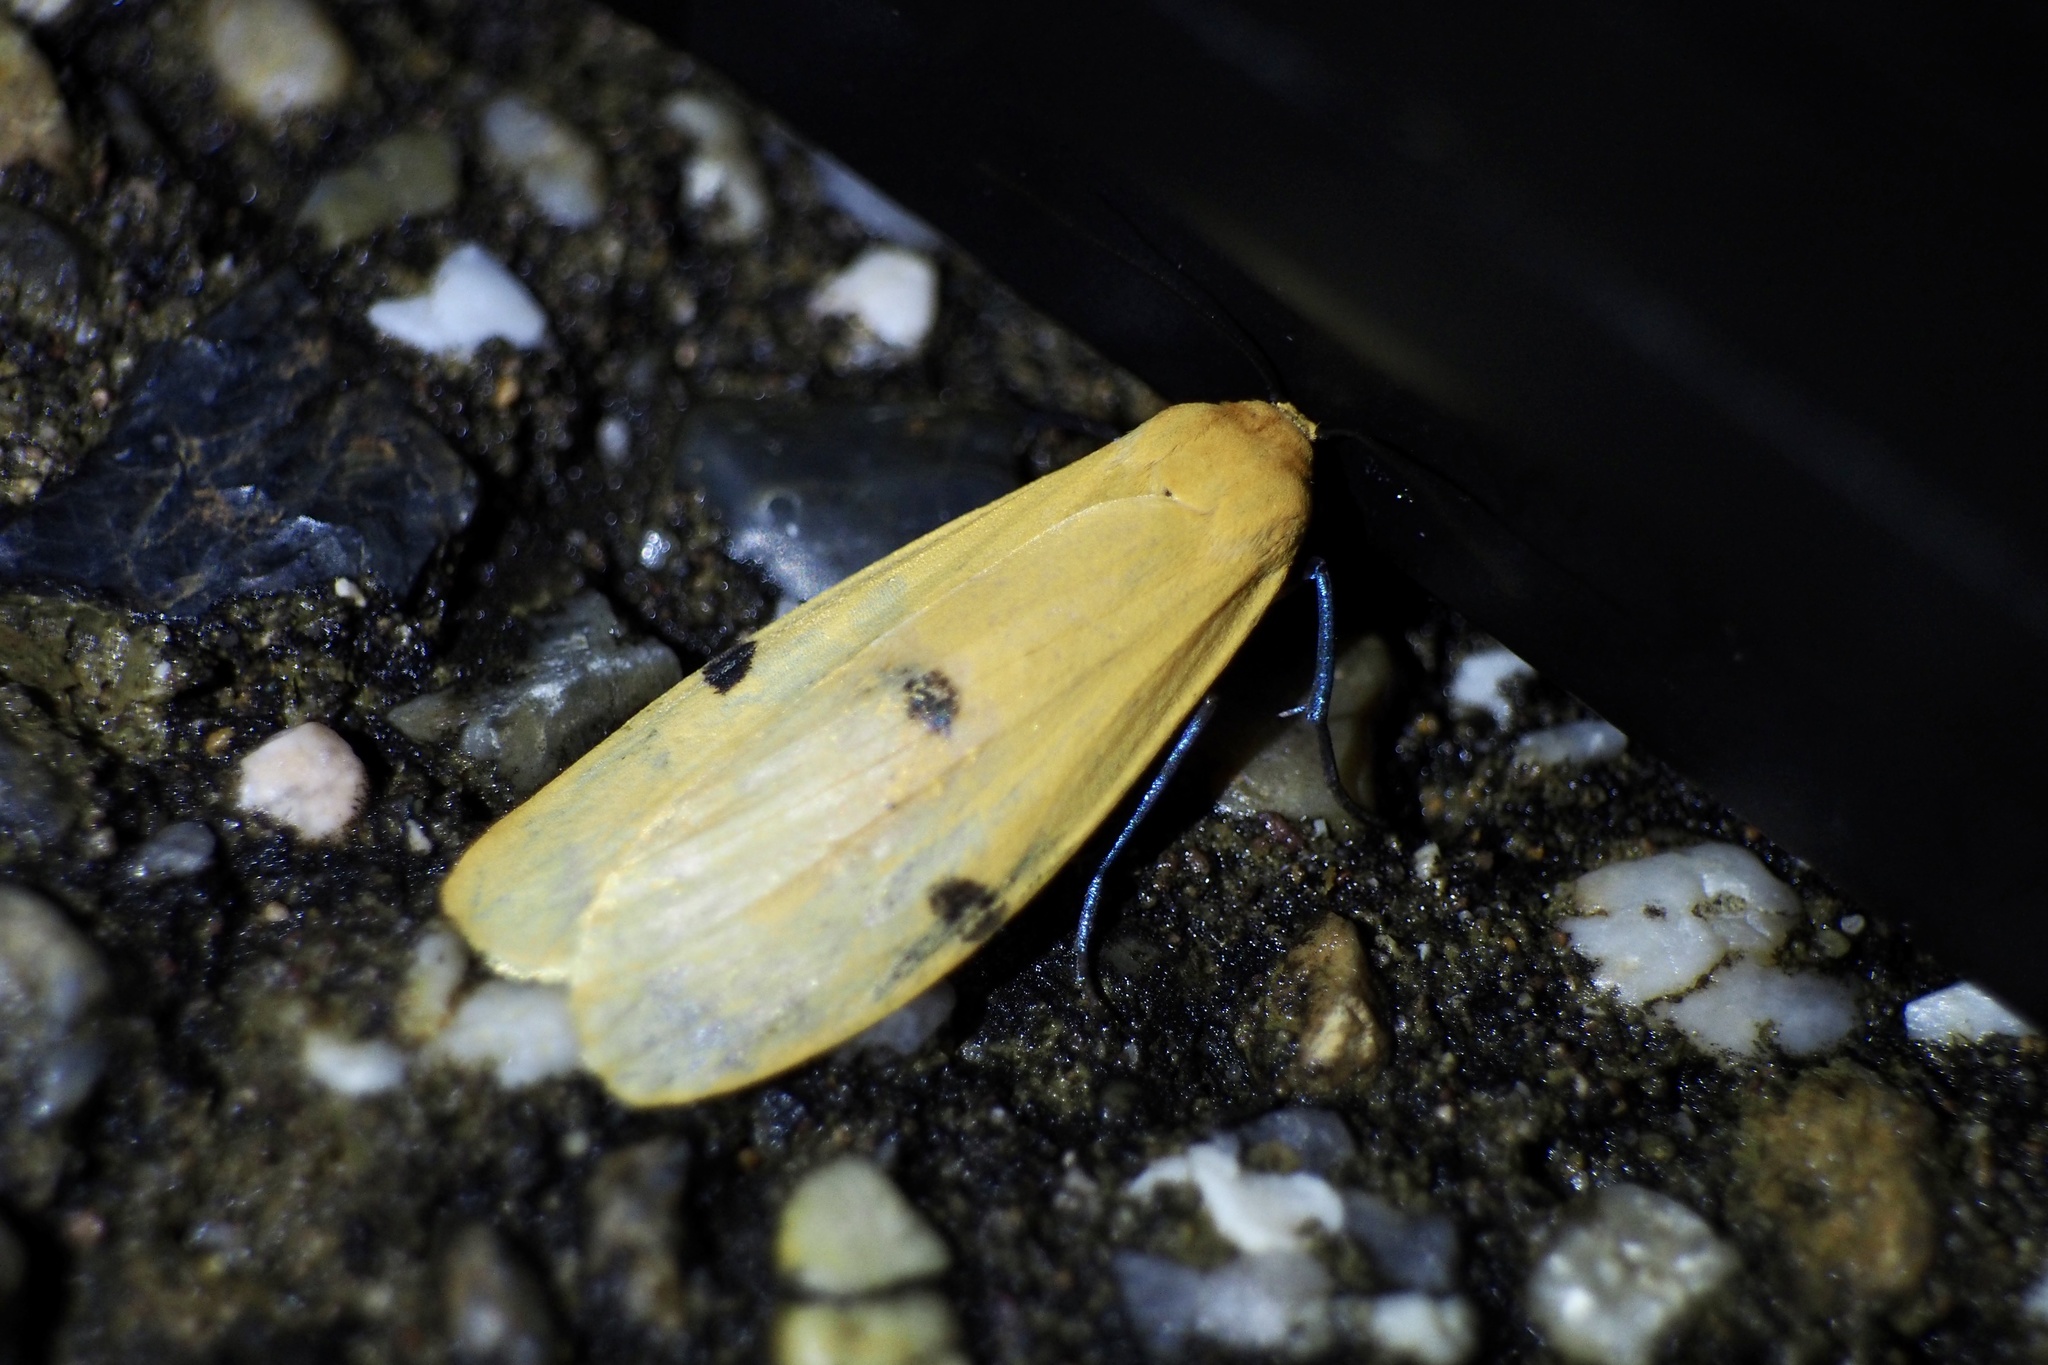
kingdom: Animalia
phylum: Arthropoda
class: Insecta
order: Lepidoptera
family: Erebidae
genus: Conilepia
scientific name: Conilepia nigricosta
